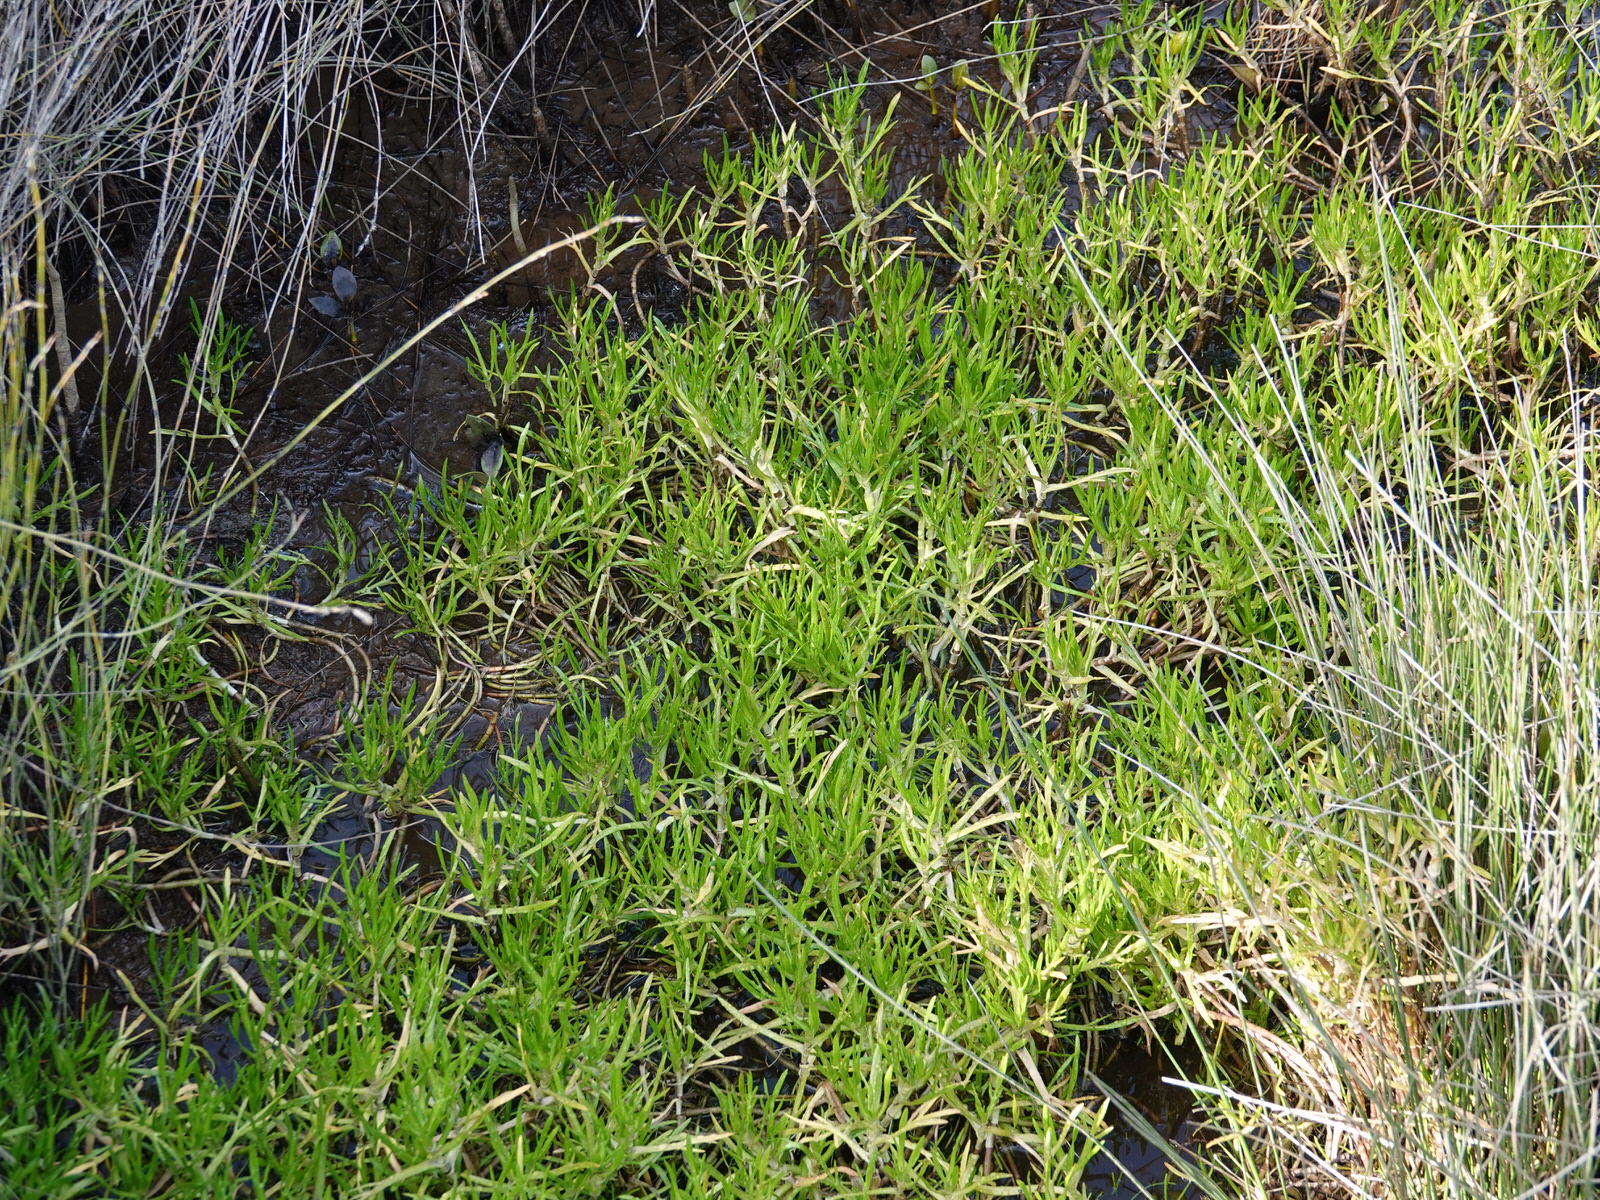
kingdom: Plantae
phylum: Tracheophyta
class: Magnoliopsida
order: Asterales
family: Asteraceae
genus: Cotula
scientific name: Cotula coronopifolia
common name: Buttonweed
